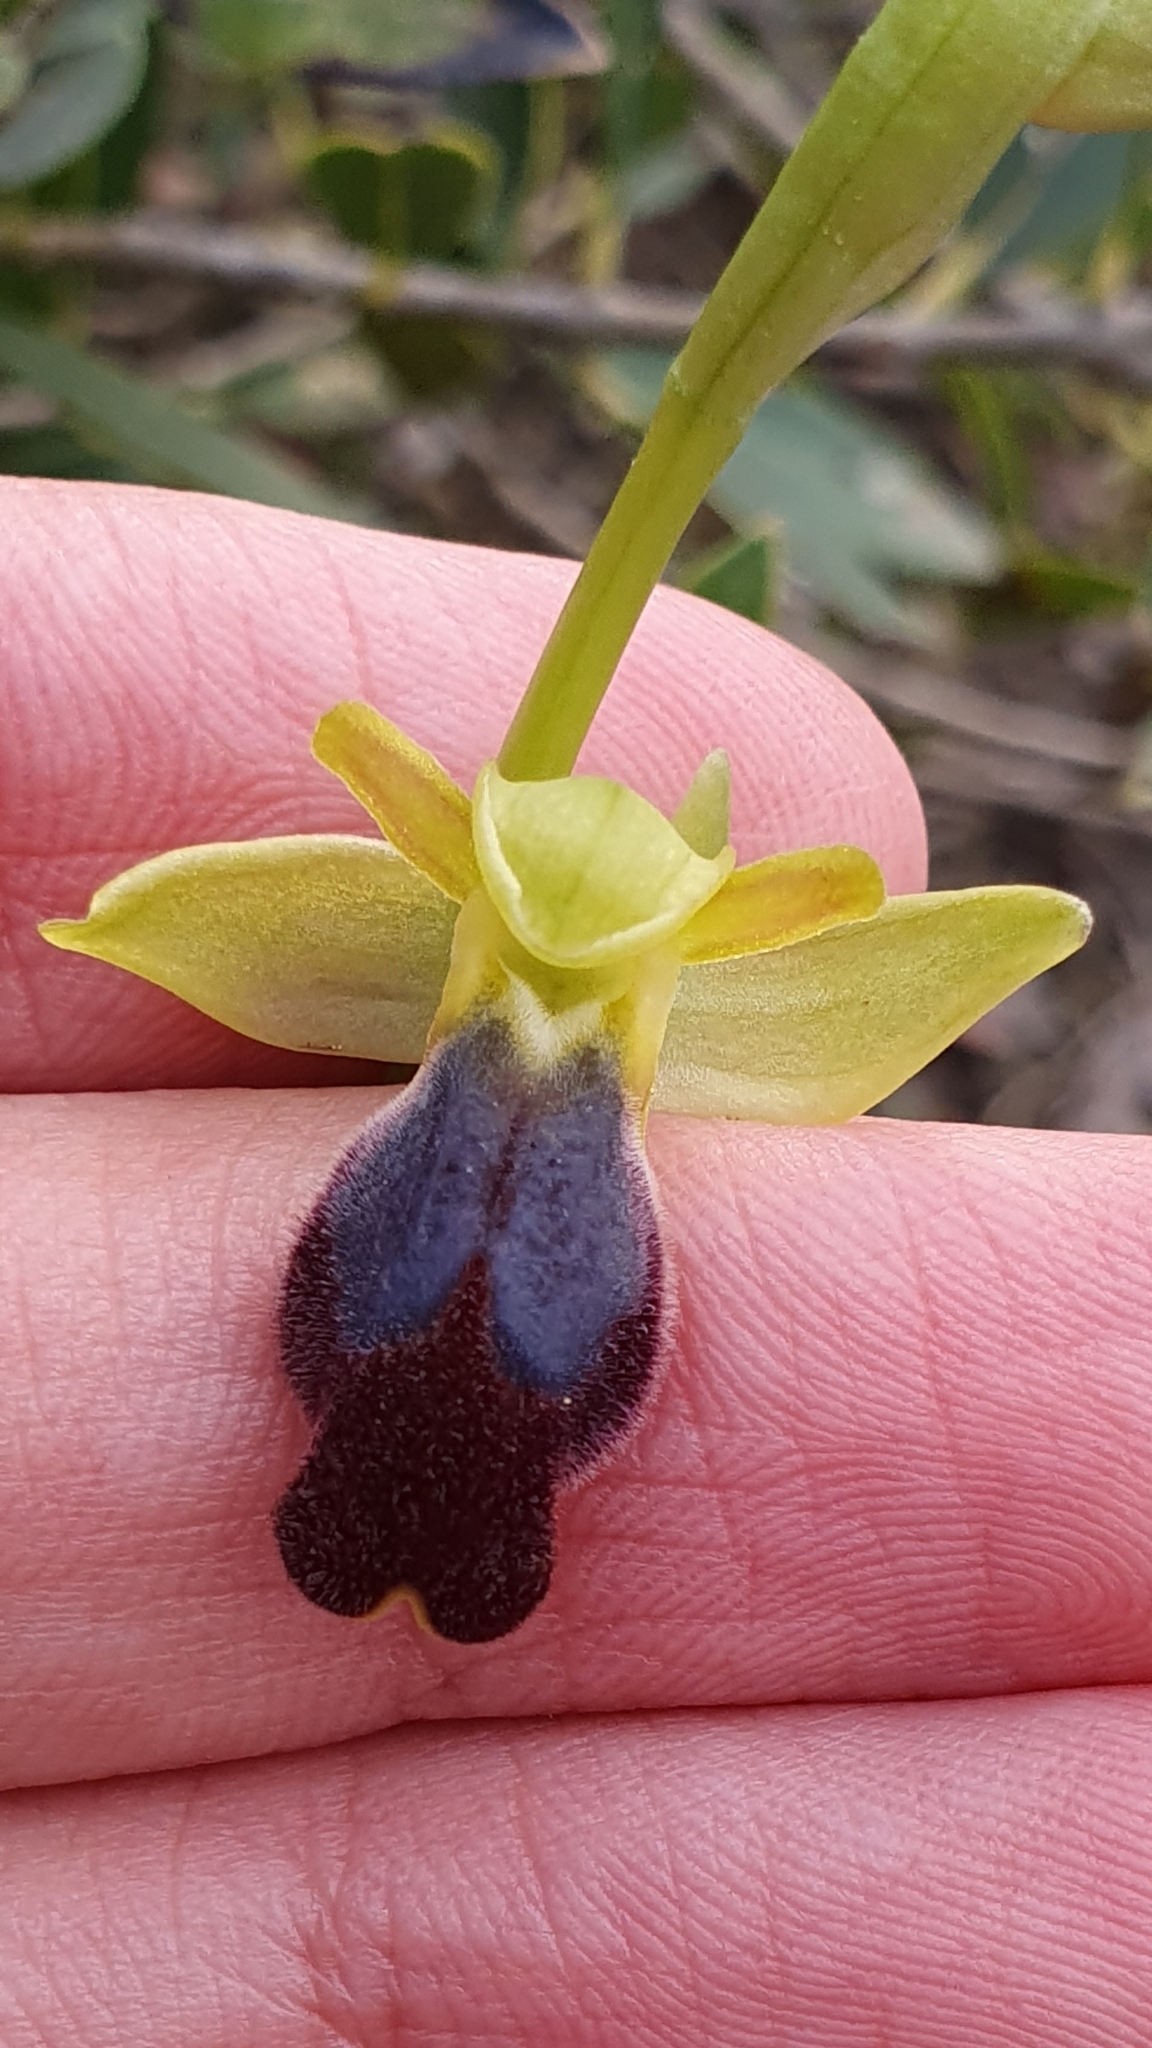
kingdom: Plantae
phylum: Tracheophyta
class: Liliopsida
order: Asparagales
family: Orchidaceae
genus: Ophrys
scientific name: Ophrys fusca
